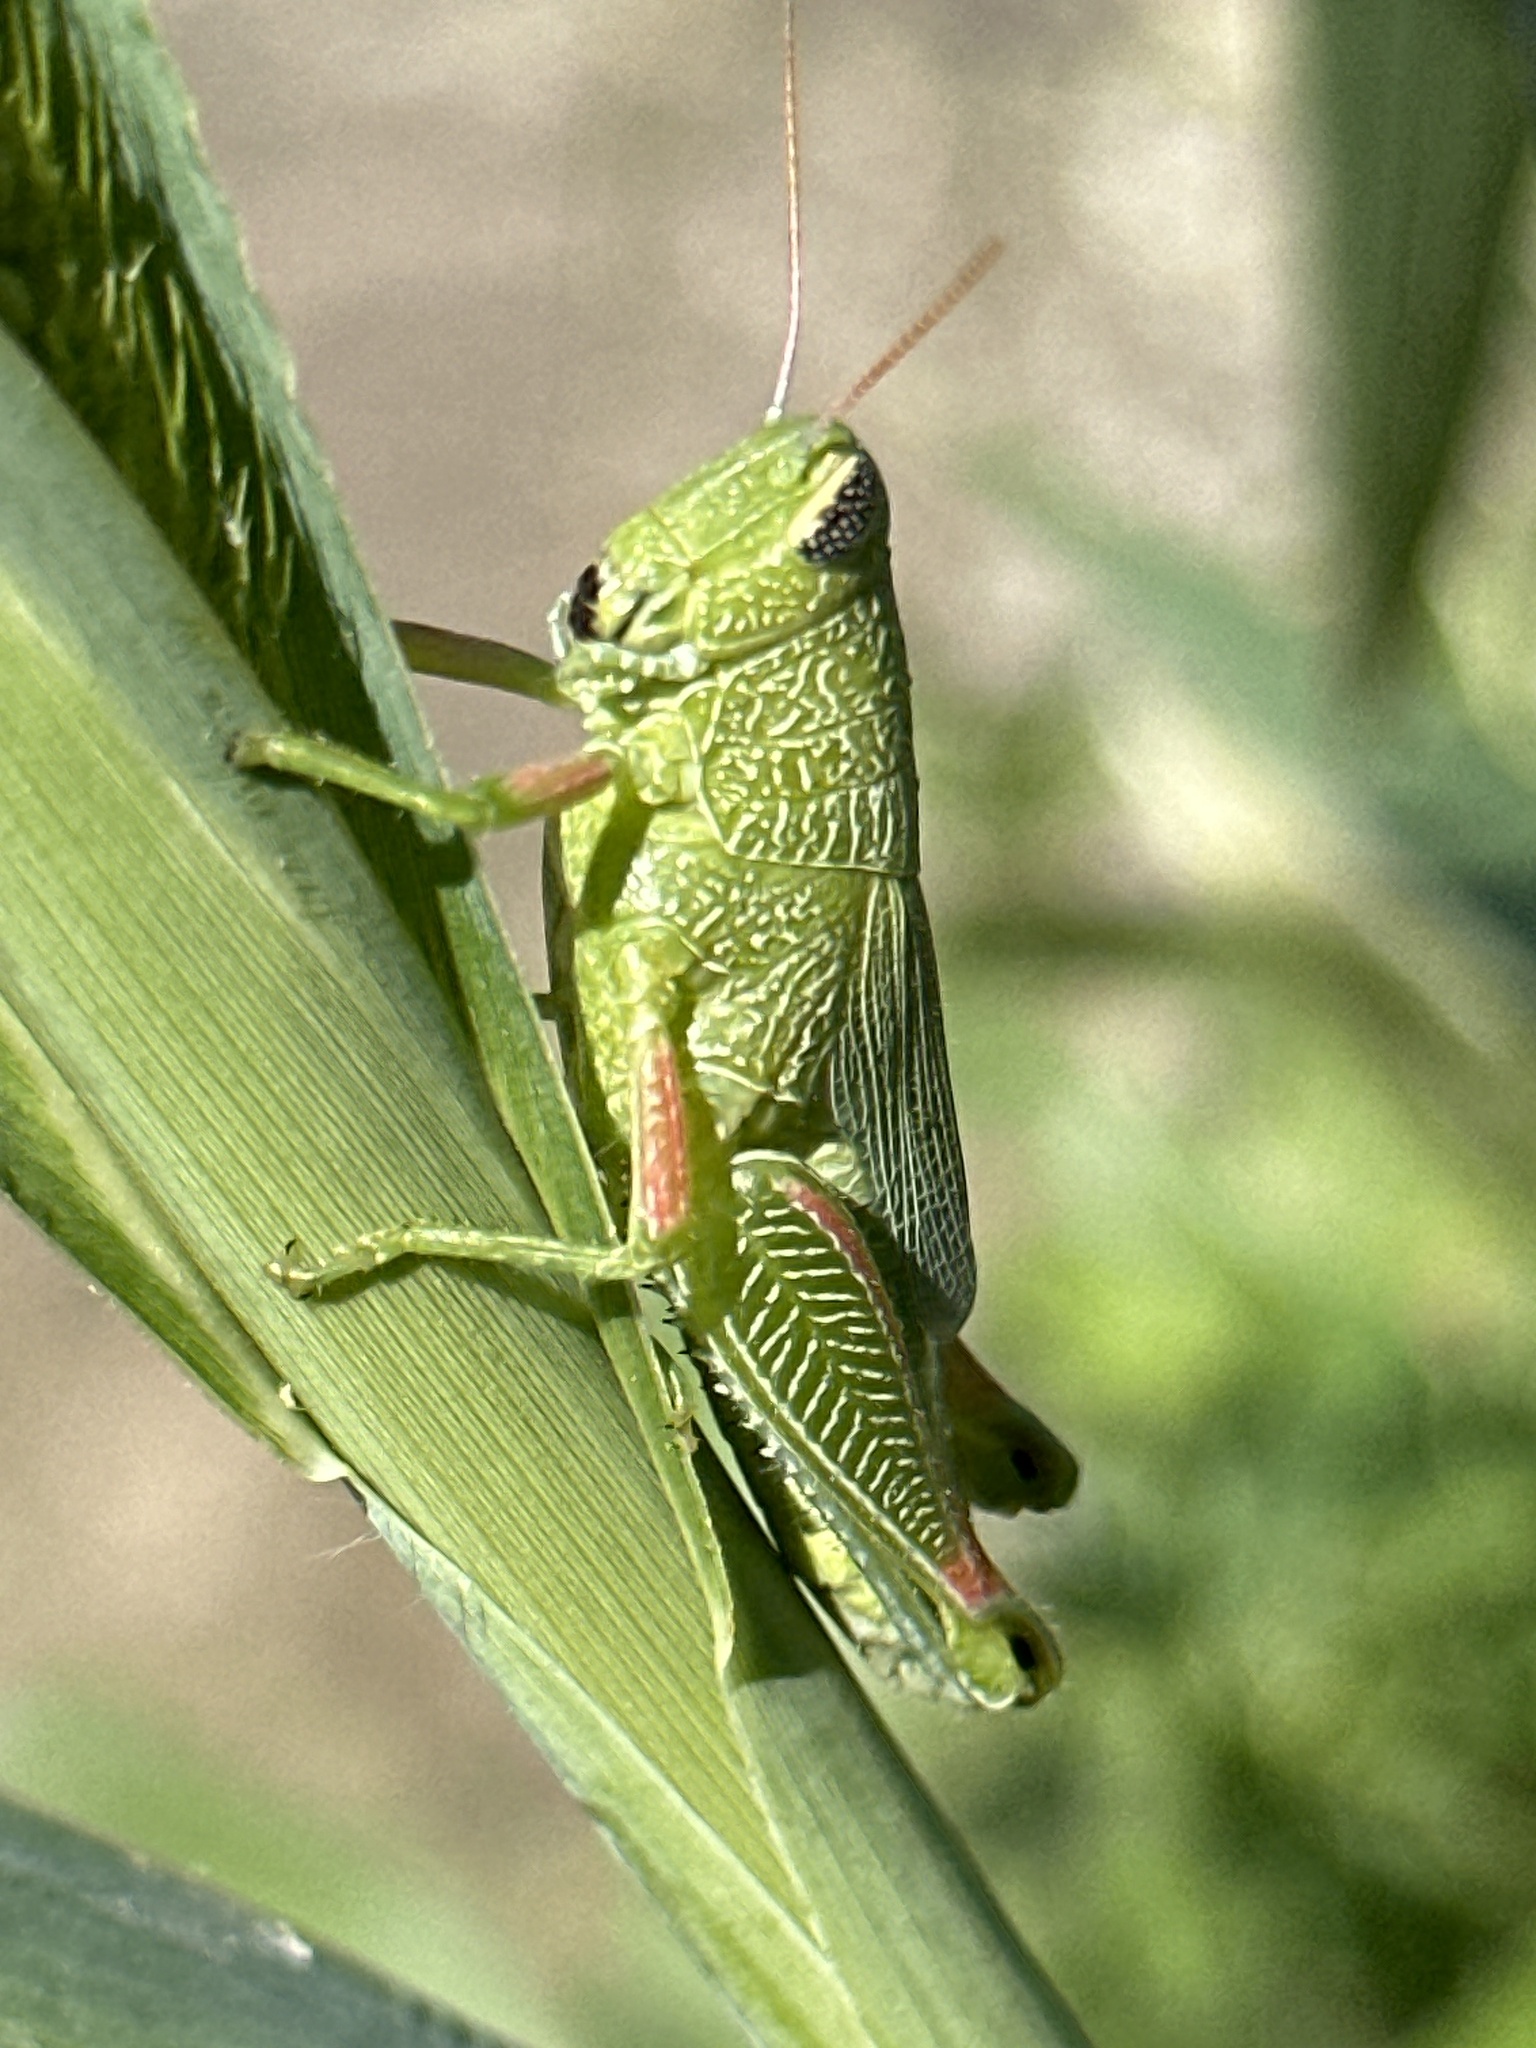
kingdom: Animalia
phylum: Arthropoda
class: Insecta
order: Orthoptera
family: Acrididae
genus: Hesperotettix
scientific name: Hesperotettix speciosus
